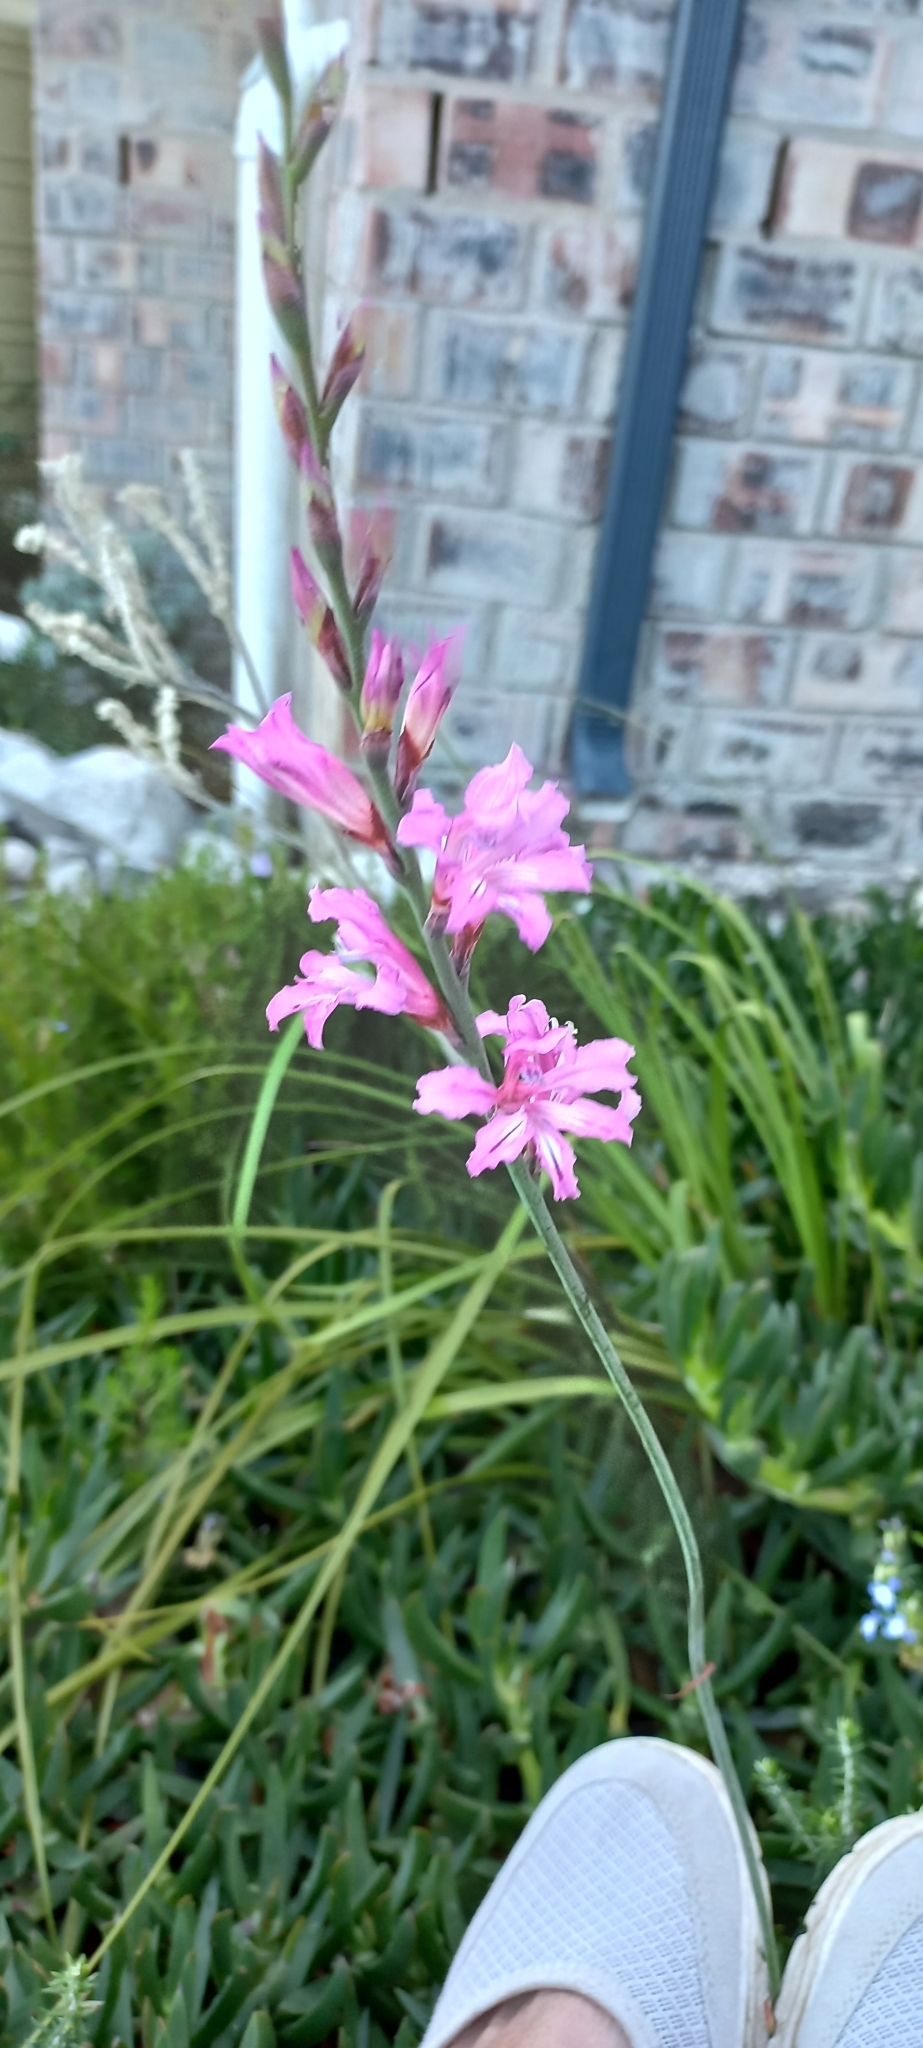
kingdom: Plantae
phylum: Tracheophyta
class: Liliopsida
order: Asparagales
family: Iridaceae
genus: Tritoniopsis
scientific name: Tritoniopsis lata
